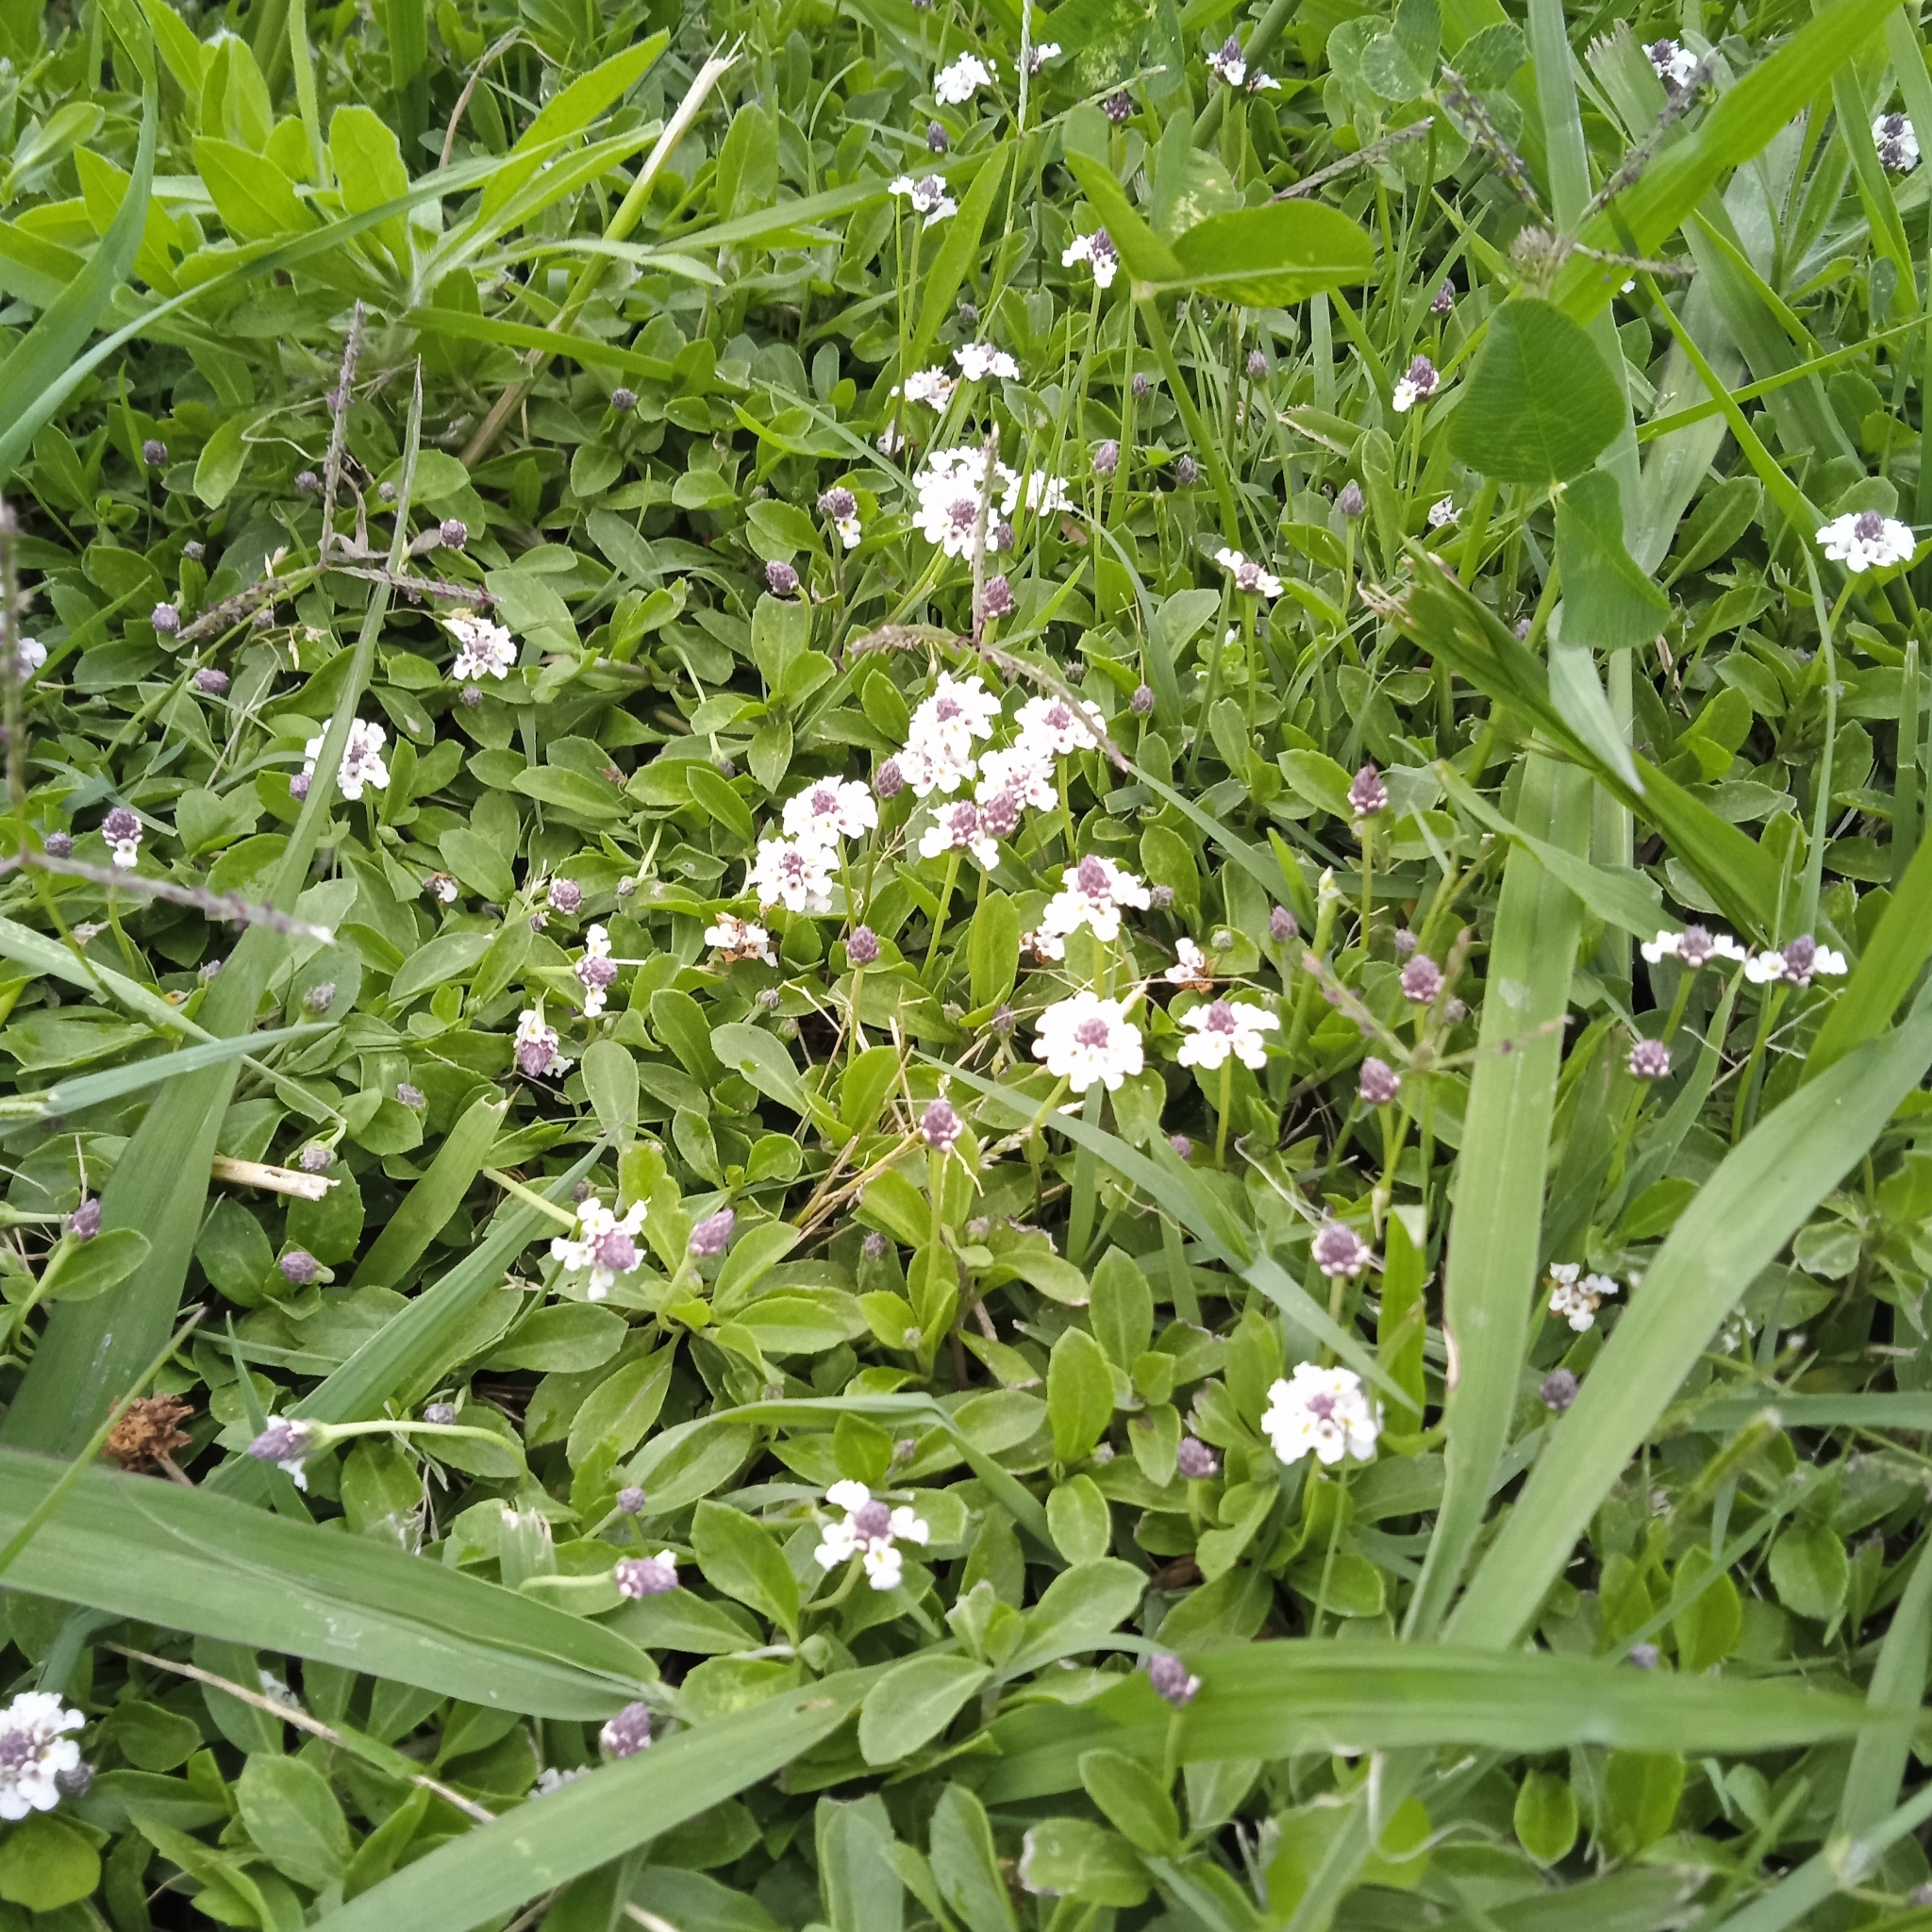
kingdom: Plantae
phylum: Tracheophyta
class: Magnoliopsida
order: Lamiales
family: Verbenaceae
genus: Phyla
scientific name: Phyla nodiflora
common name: Frogfruit
